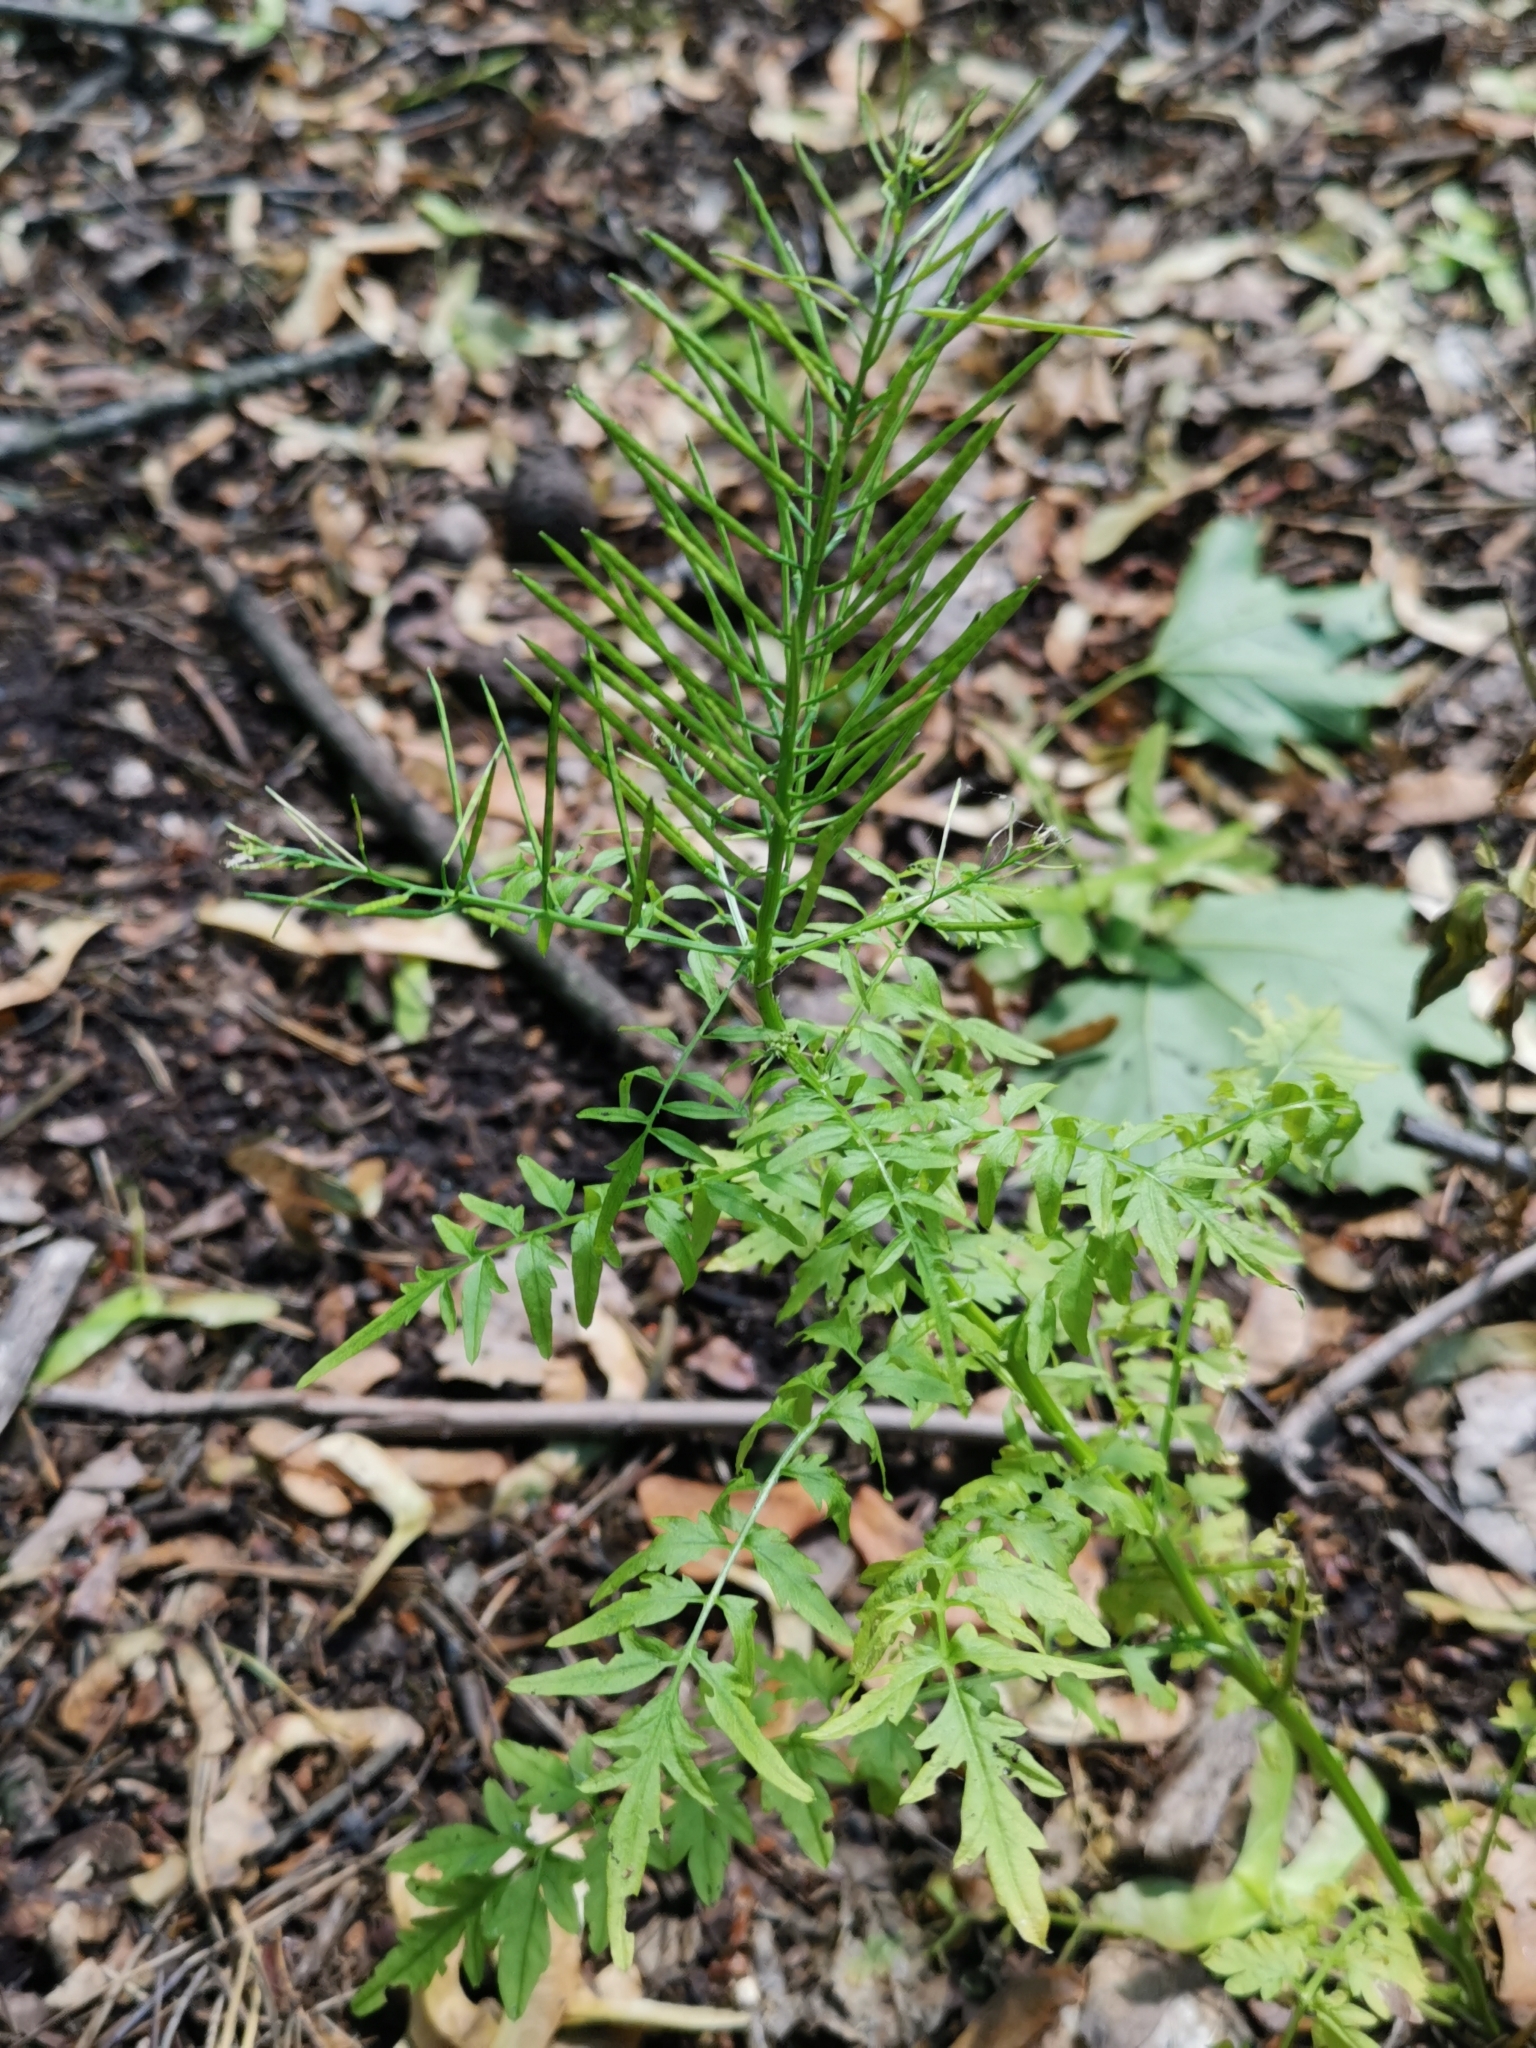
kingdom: Plantae
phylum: Tracheophyta
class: Magnoliopsida
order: Brassicales
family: Brassicaceae
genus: Cardamine
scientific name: Cardamine impatiens
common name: Narrow-leaved bitter-cress
